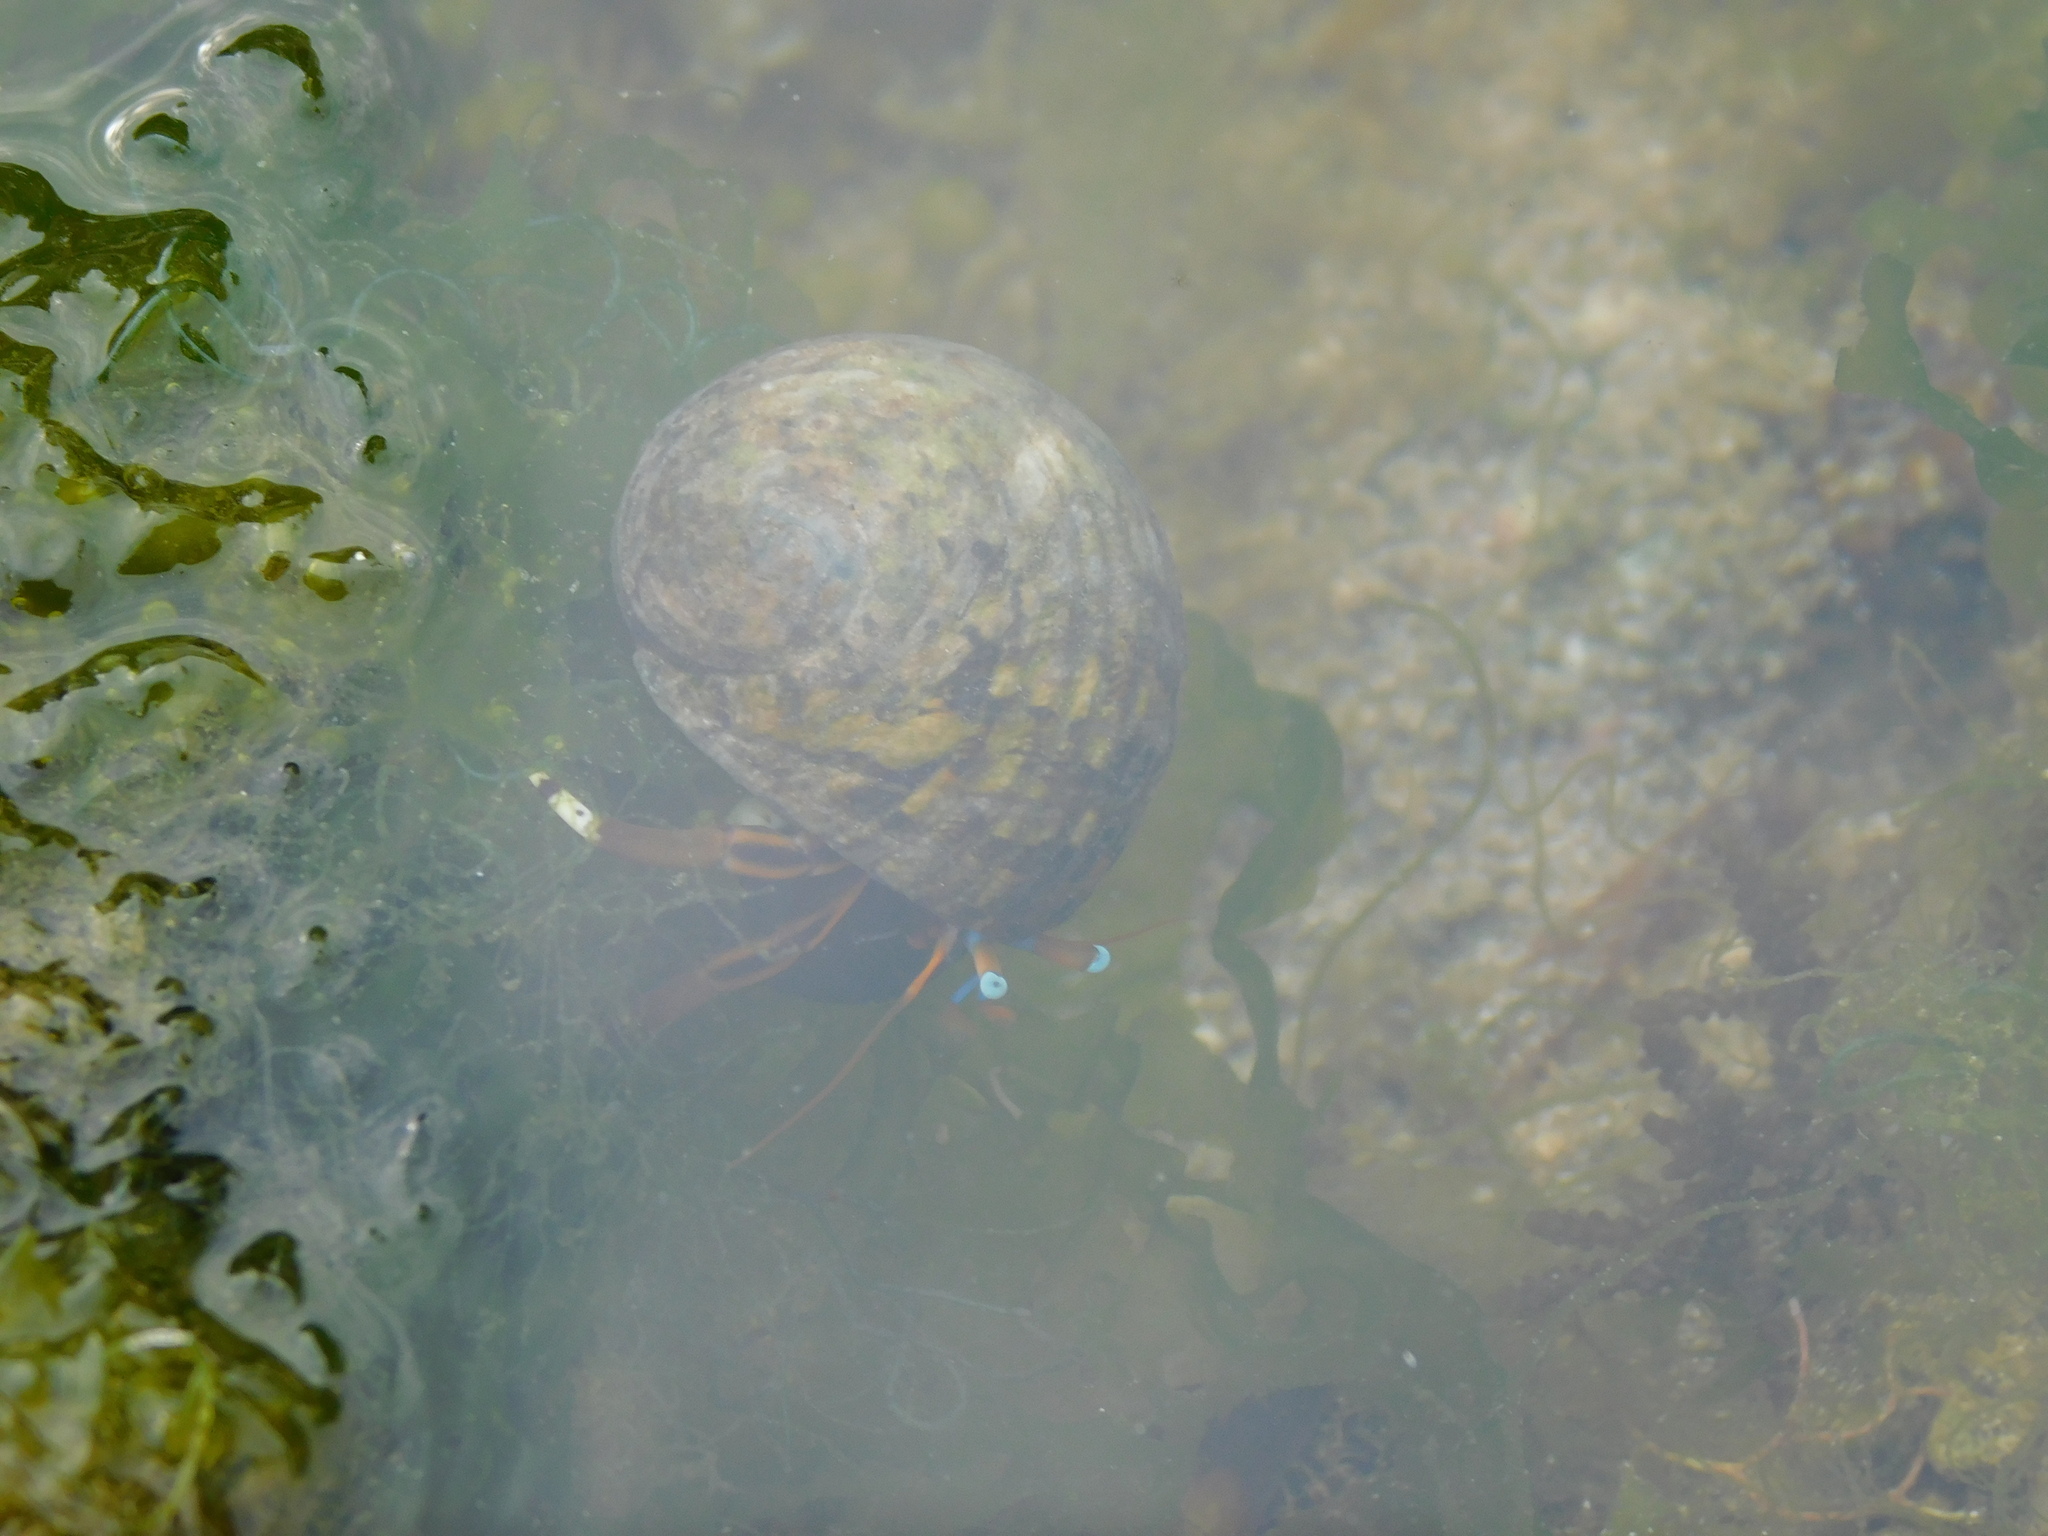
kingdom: Animalia
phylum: Arthropoda
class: Malacostraca
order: Decapoda
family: Diogenidae
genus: Calcinus
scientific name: Calcinus laevimanus
